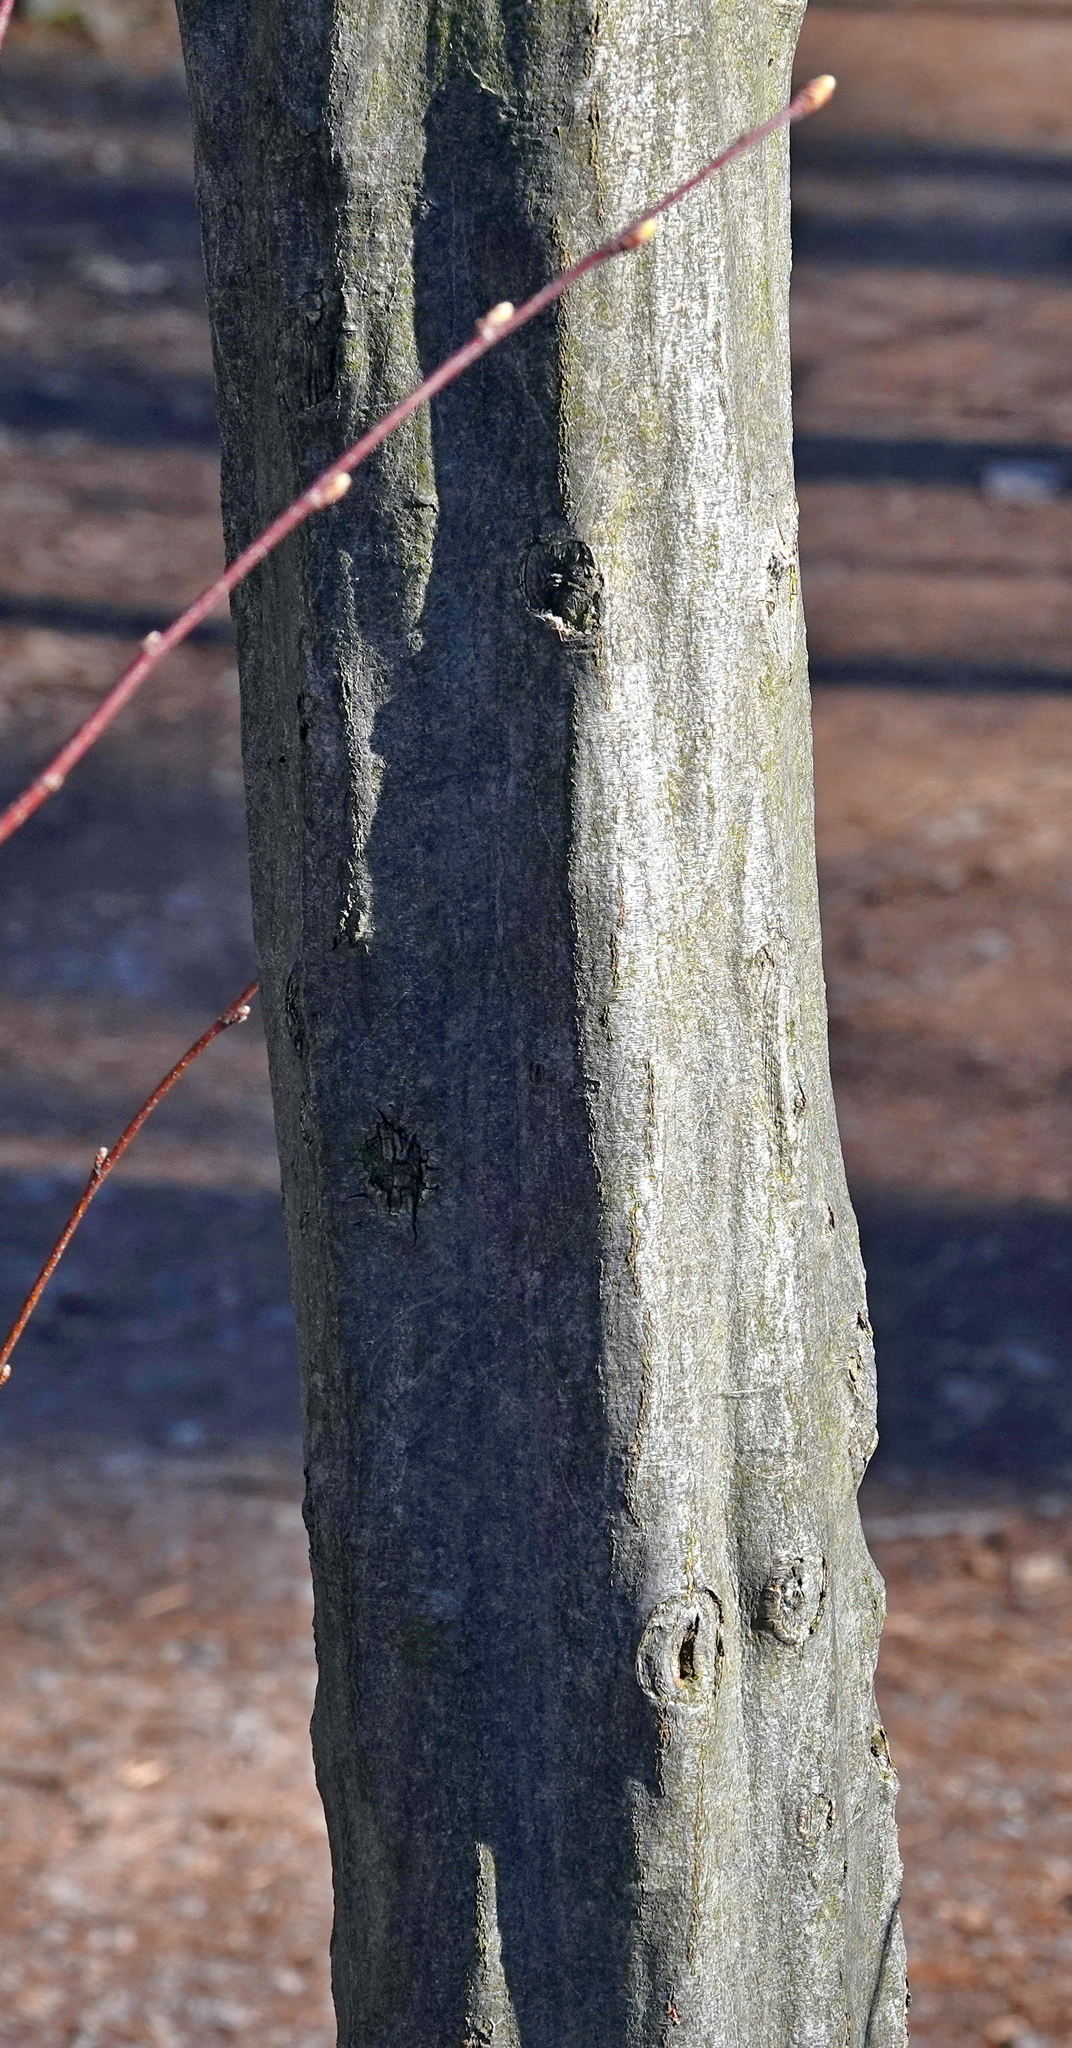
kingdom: Plantae
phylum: Tracheophyta
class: Magnoliopsida
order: Fagales
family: Betulaceae
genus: Carpinus
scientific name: Carpinus caroliniana
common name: American hornbeam
